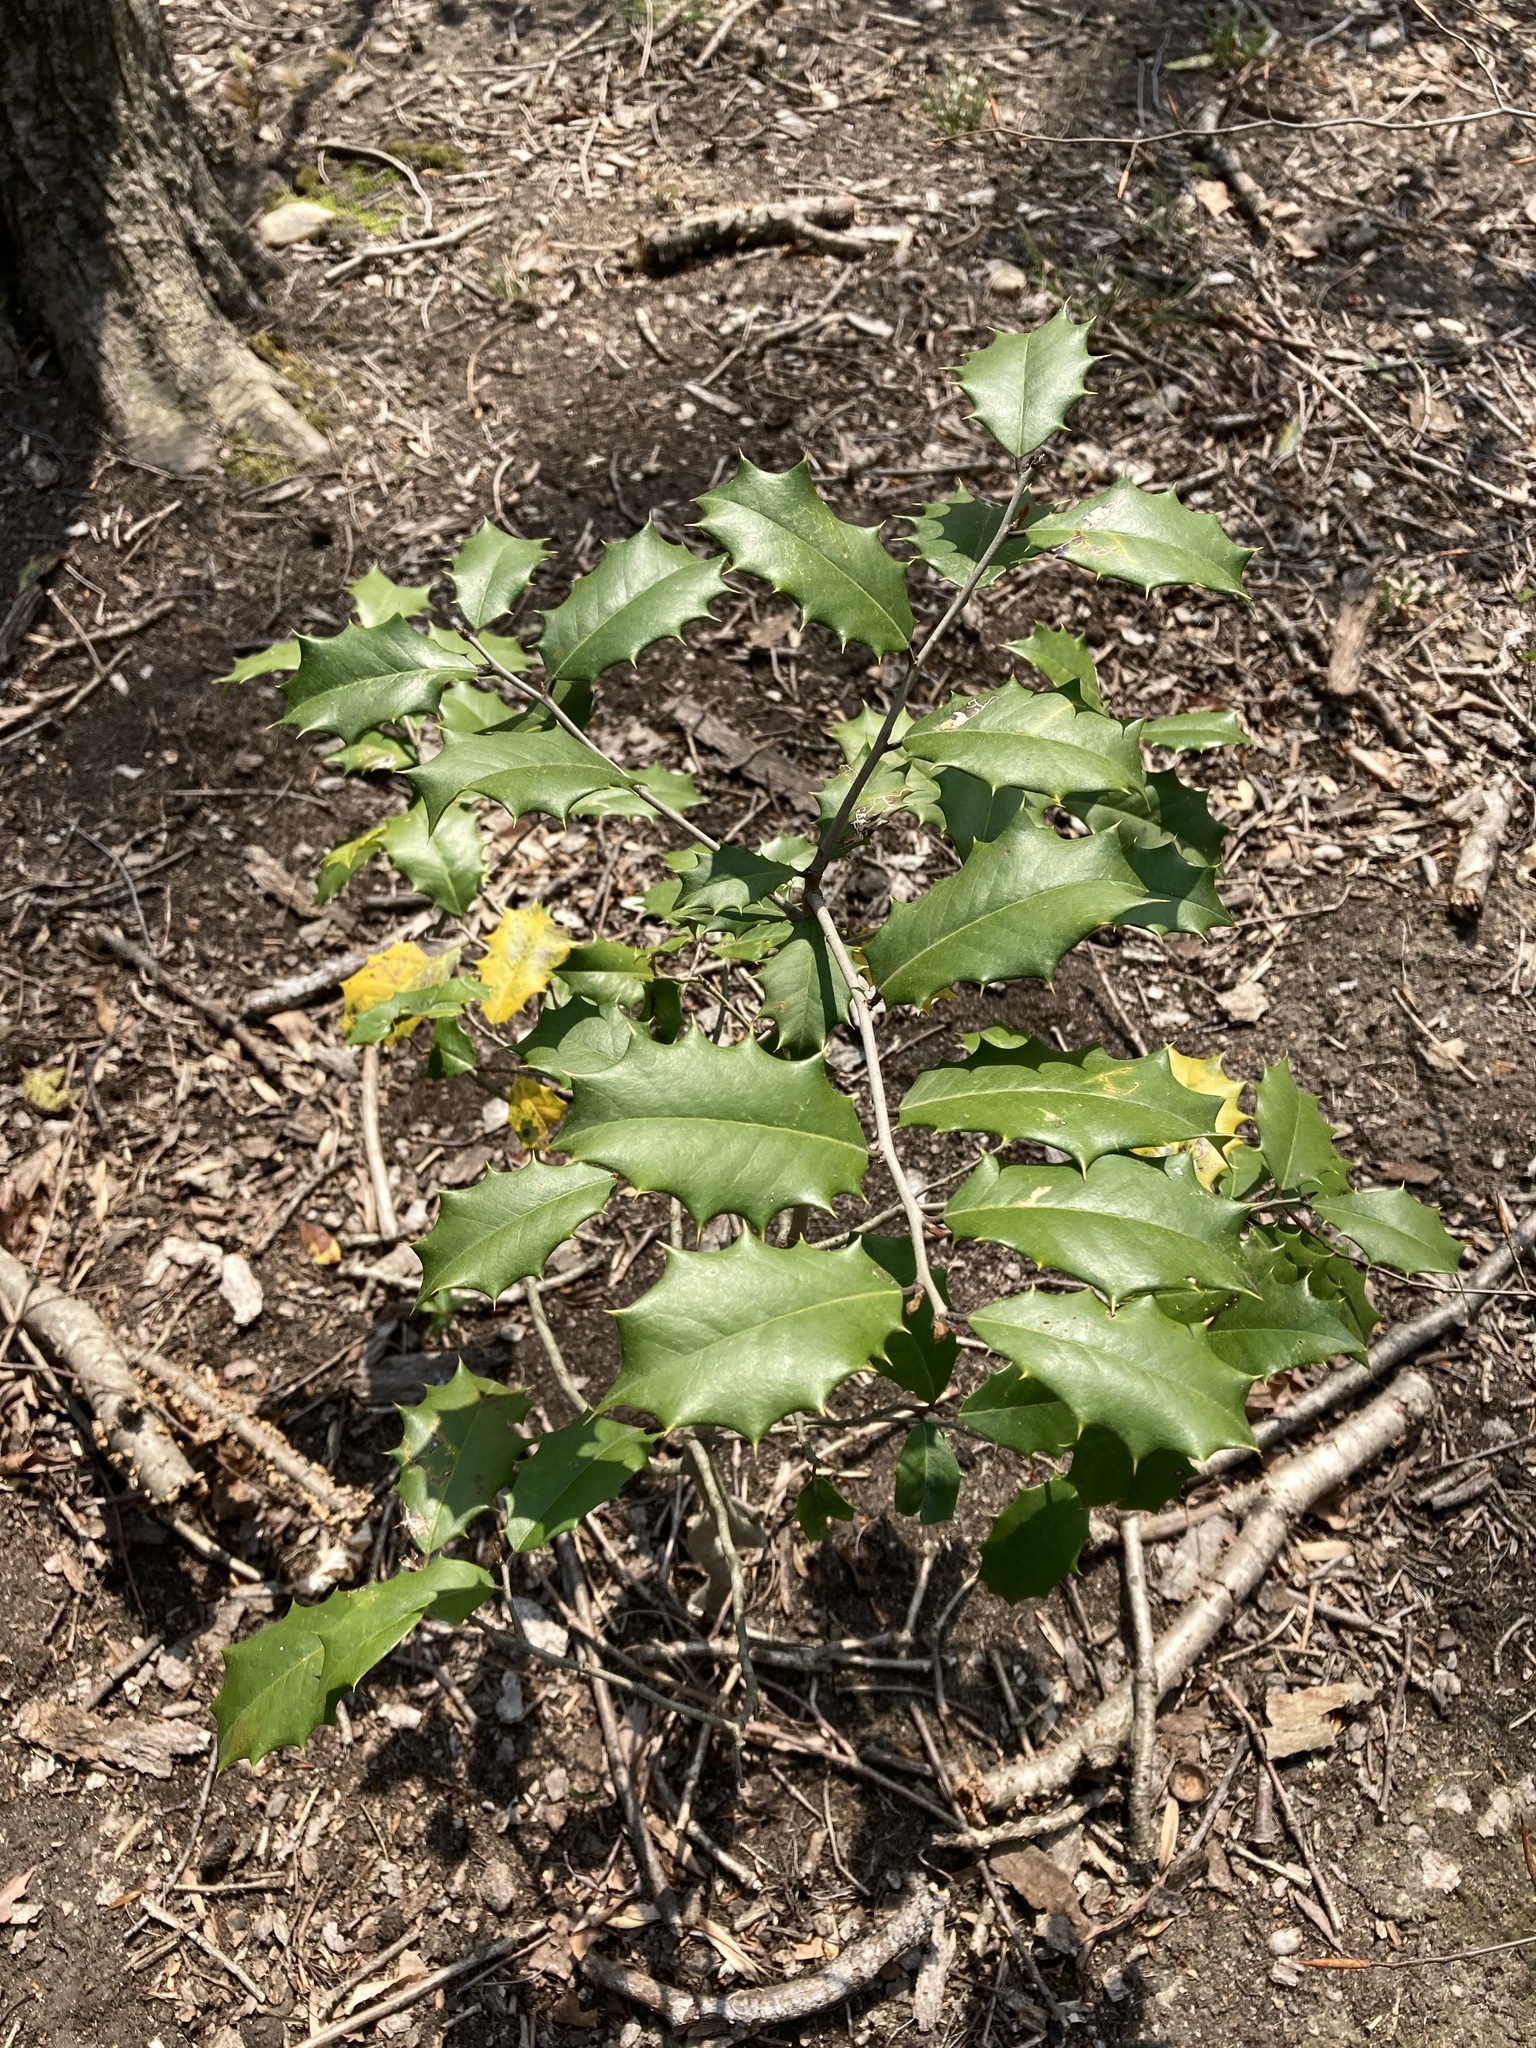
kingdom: Plantae
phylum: Tracheophyta
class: Magnoliopsida
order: Aquifoliales
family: Aquifoliaceae
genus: Ilex
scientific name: Ilex opaca
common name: American holly
